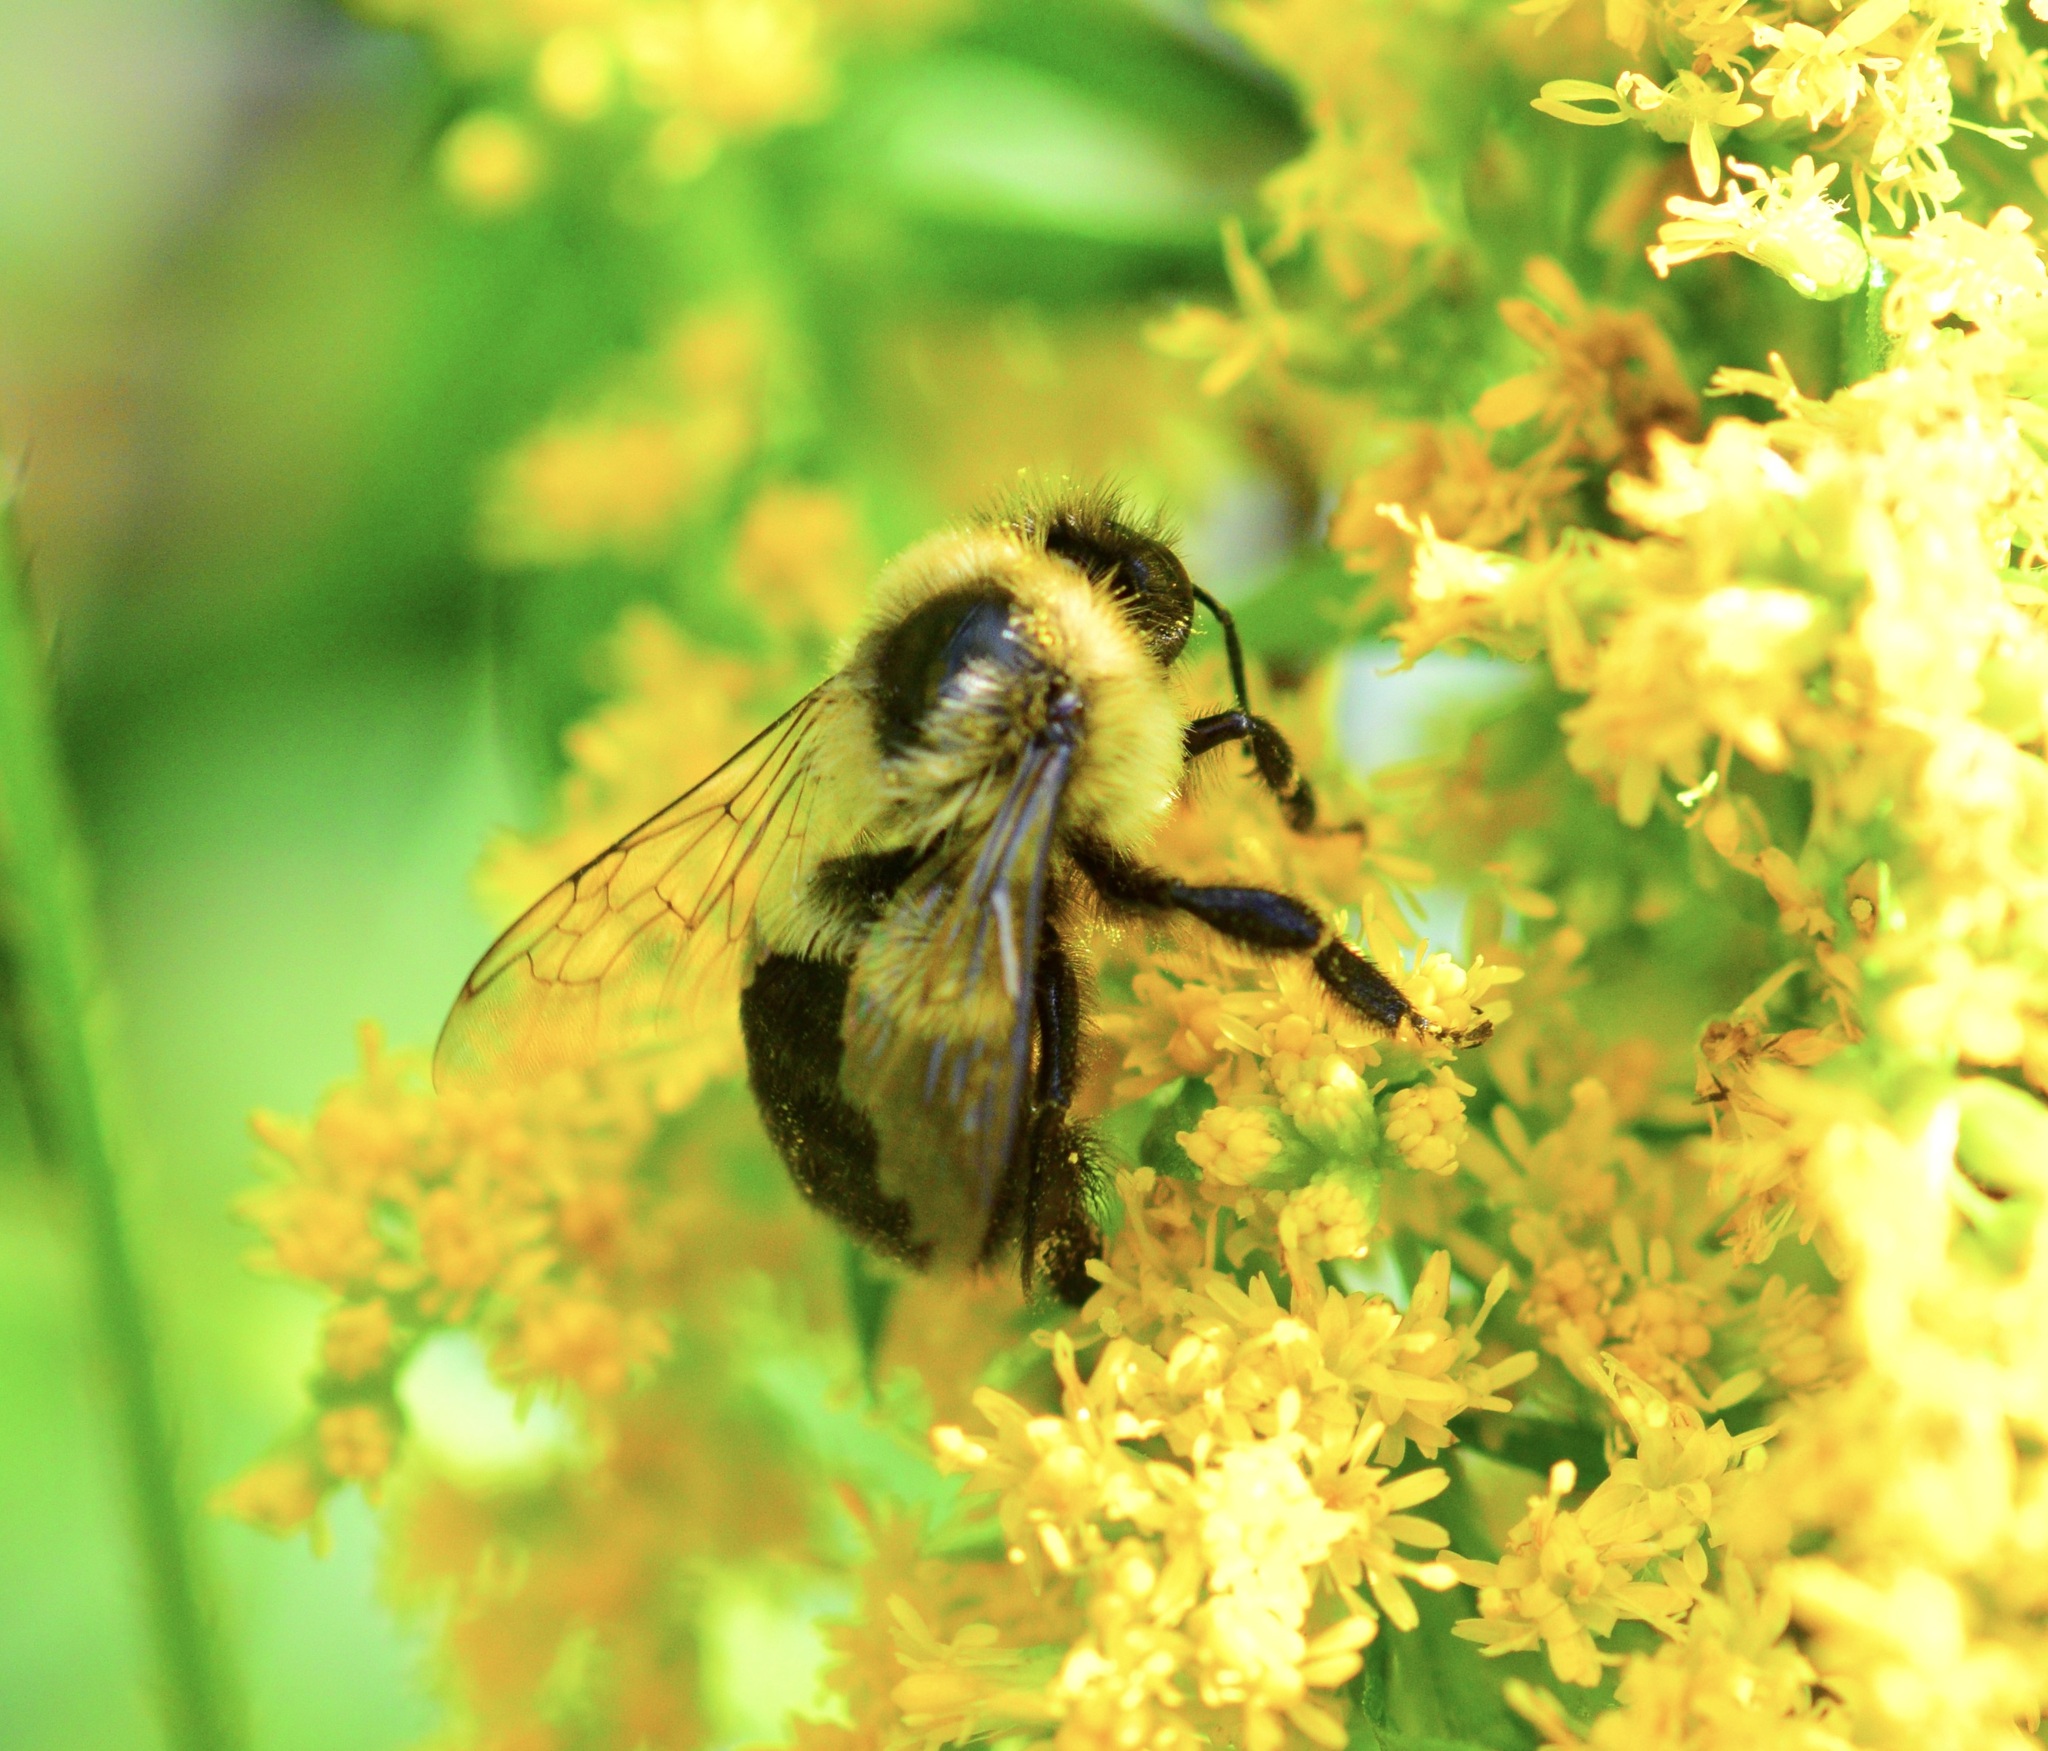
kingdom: Animalia
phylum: Arthropoda
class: Insecta
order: Hymenoptera
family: Apidae
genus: Bombus
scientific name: Bombus impatiens
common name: Common eastern bumble bee
